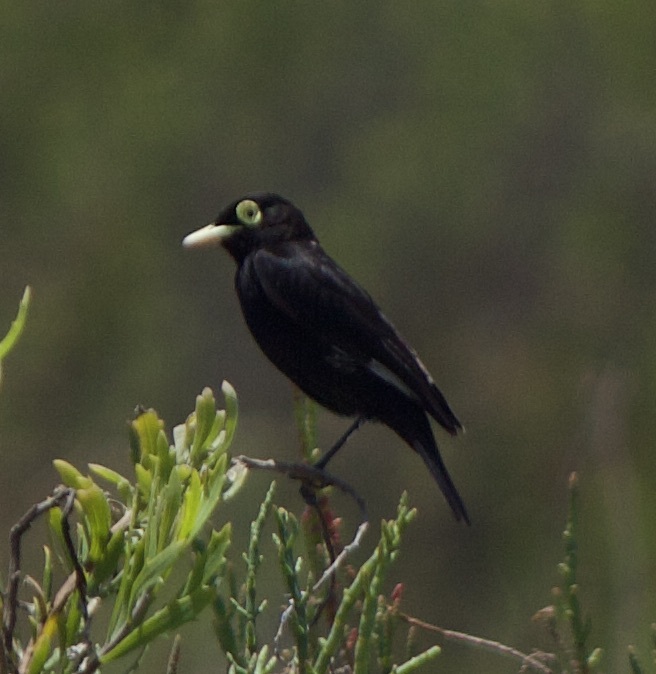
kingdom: Animalia
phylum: Chordata
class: Aves
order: Passeriformes
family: Tyrannidae
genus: Hymenops
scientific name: Hymenops perspicillatus
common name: Spectacled tyrant
